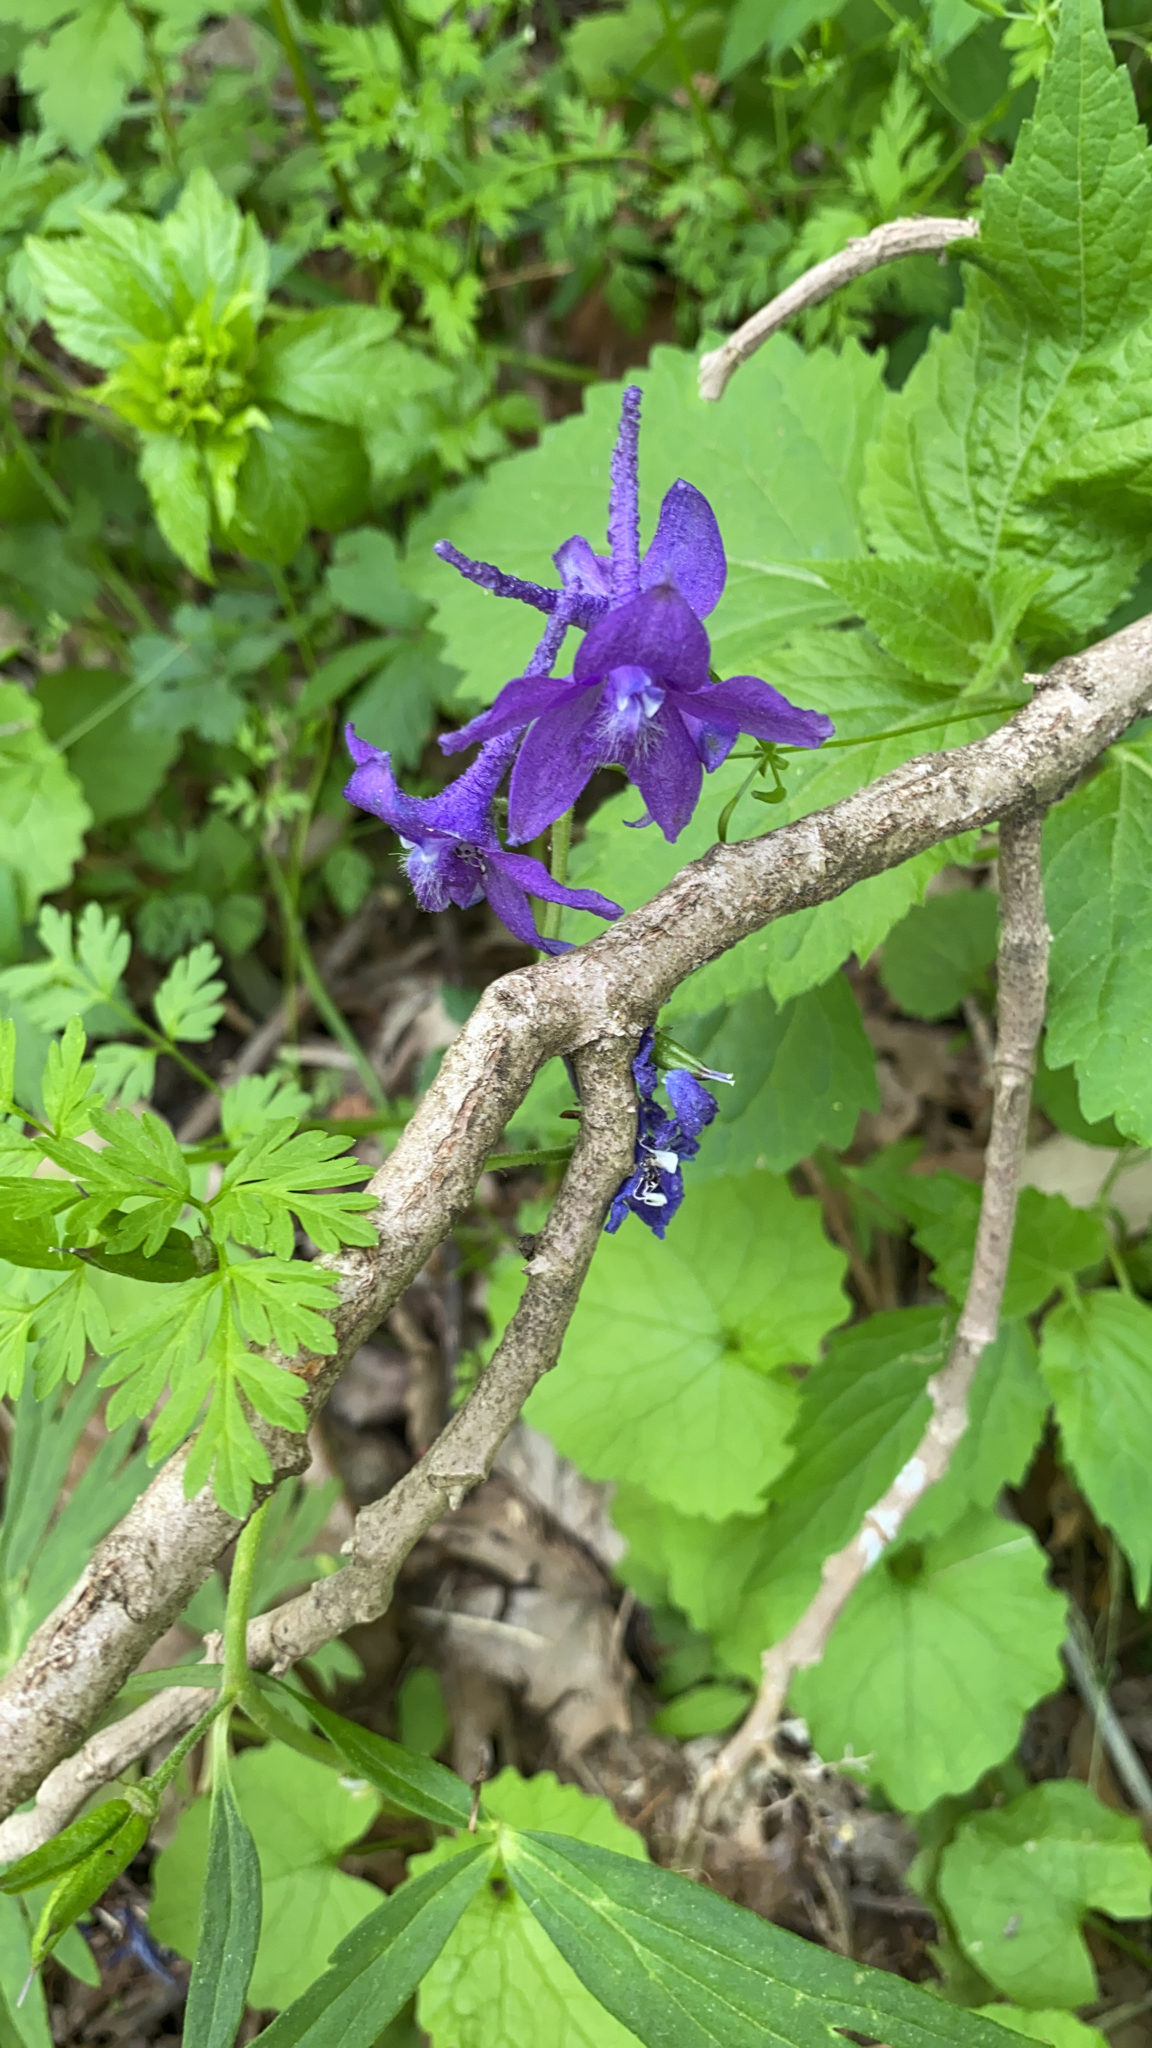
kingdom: Plantae
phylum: Tracheophyta
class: Magnoliopsida
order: Ranunculales
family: Ranunculaceae
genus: Delphinium
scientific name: Delphinium tricorne
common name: Dwarf larkspur
